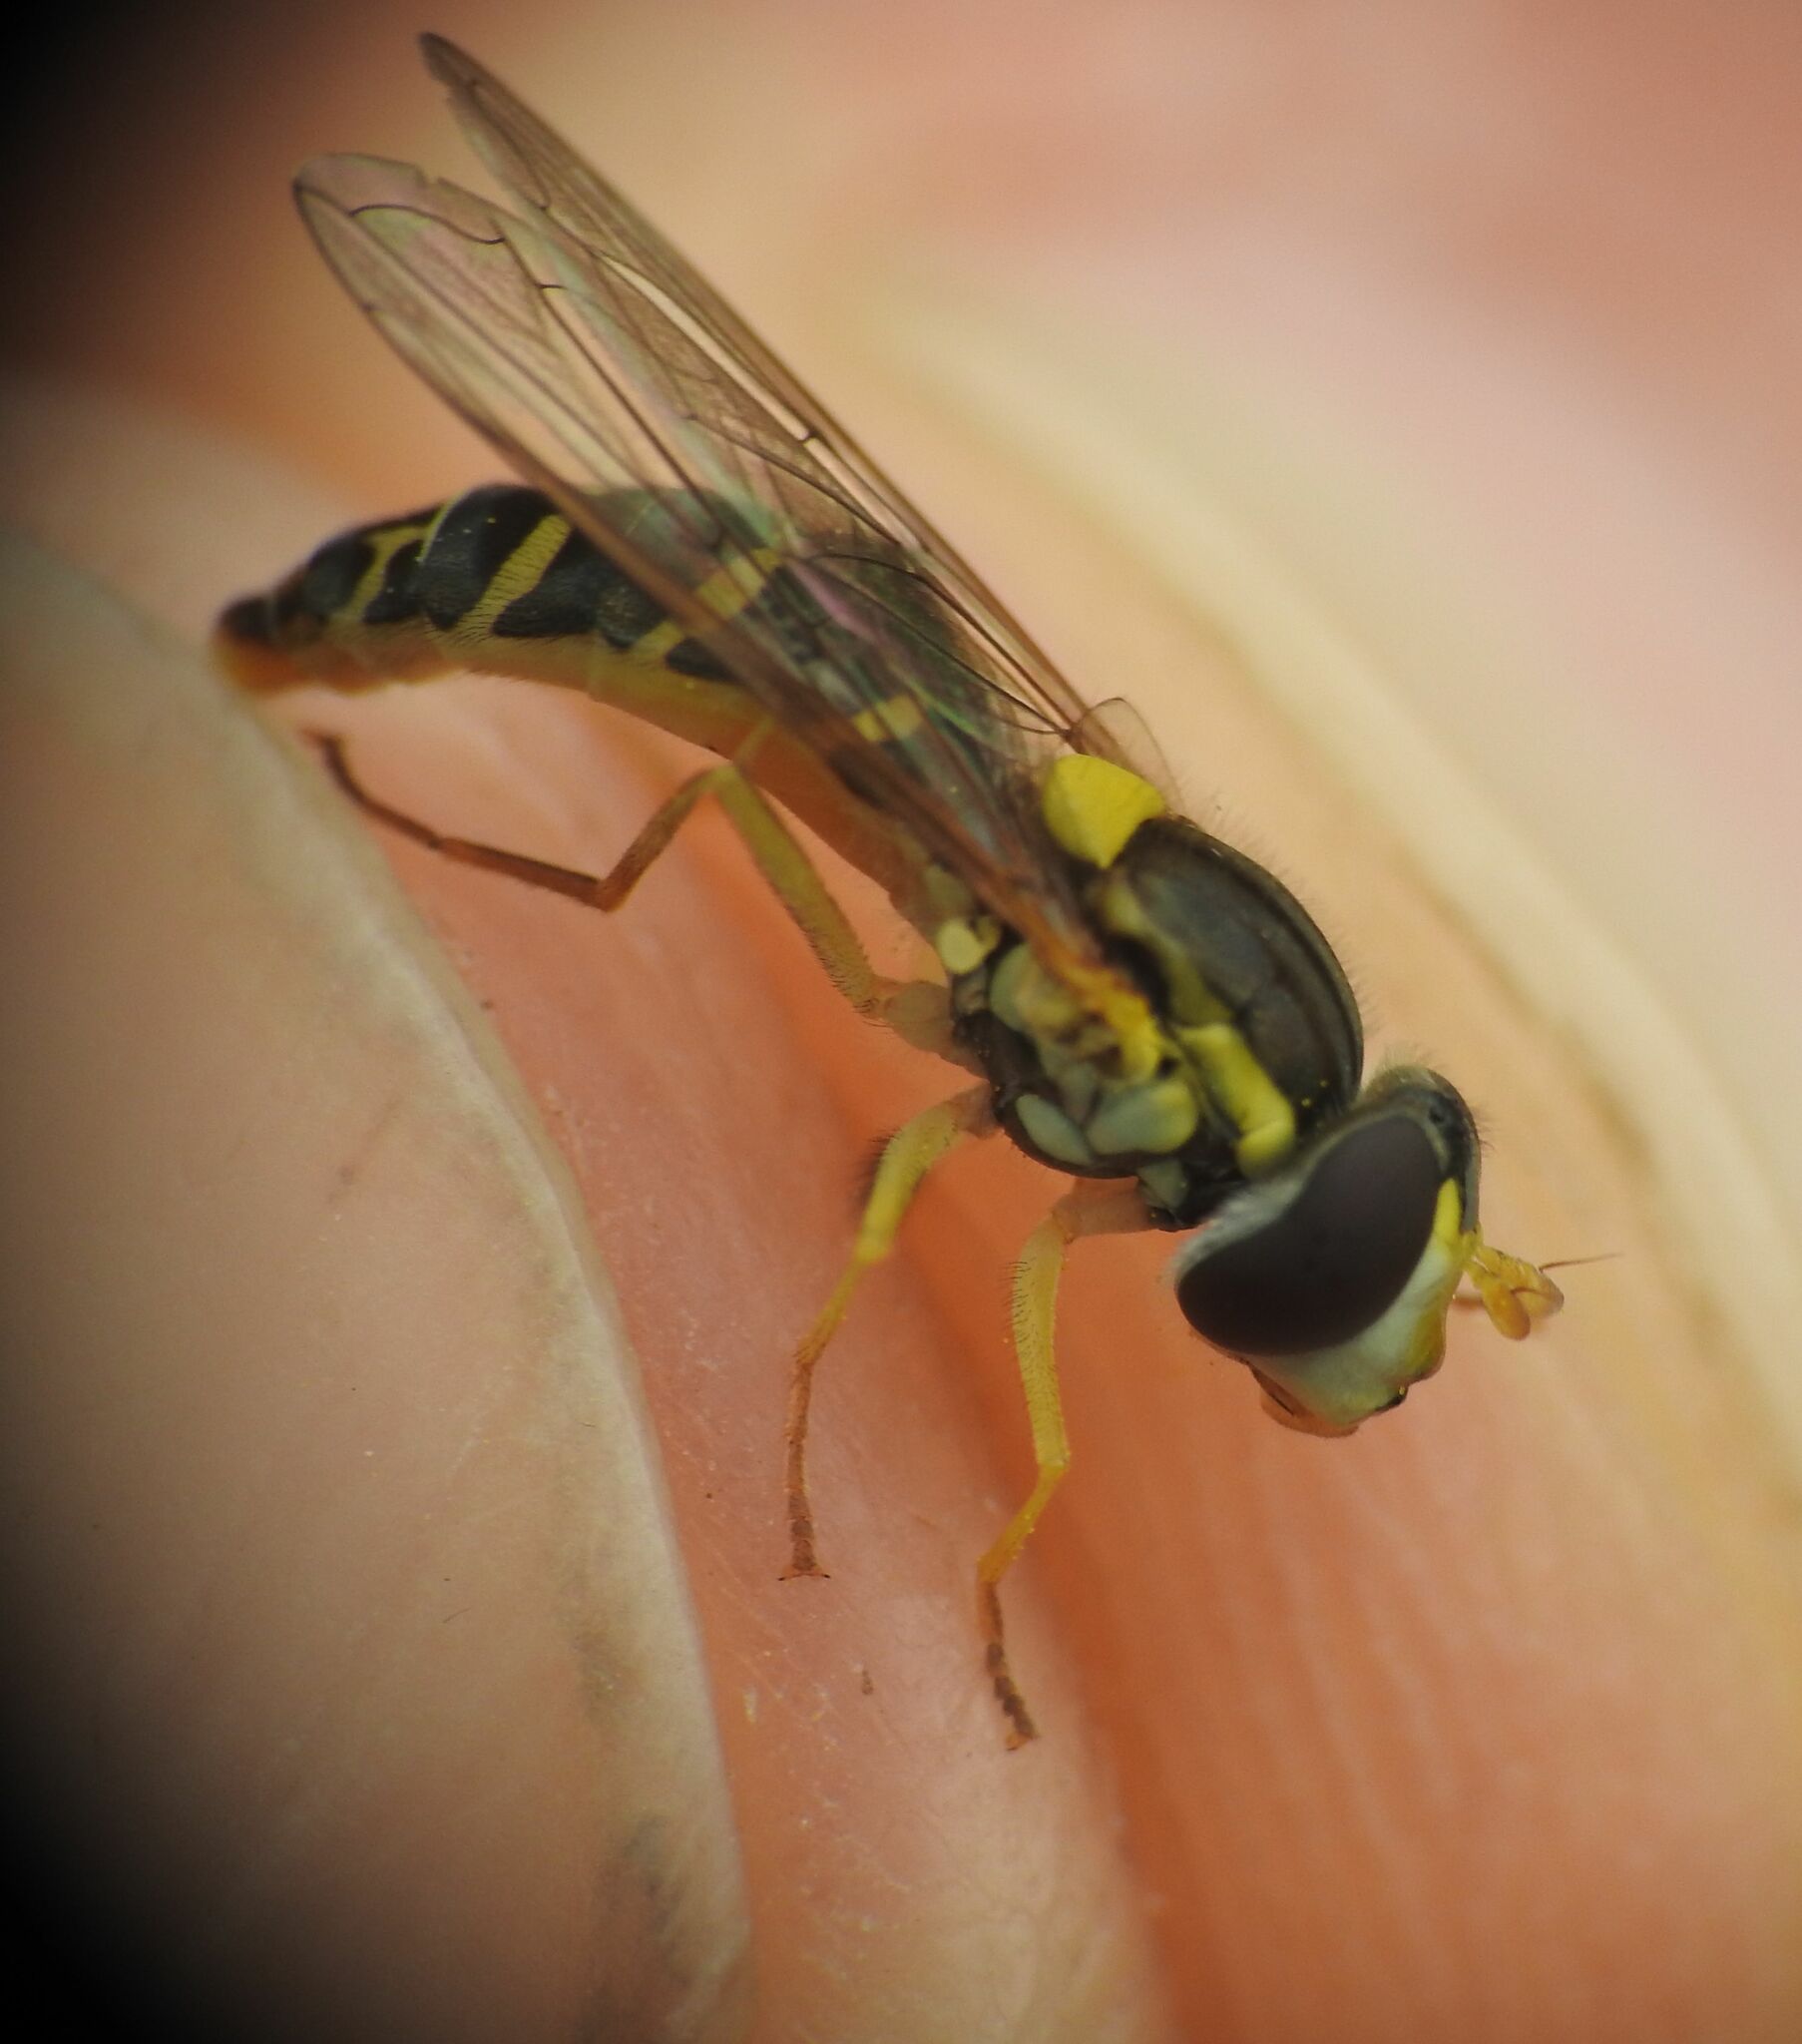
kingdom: Animalia
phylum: Arthropoda
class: Insecta
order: Diptera
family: Syrphidae
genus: Sphaerophoria
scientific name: Sphaerophoria scripta
